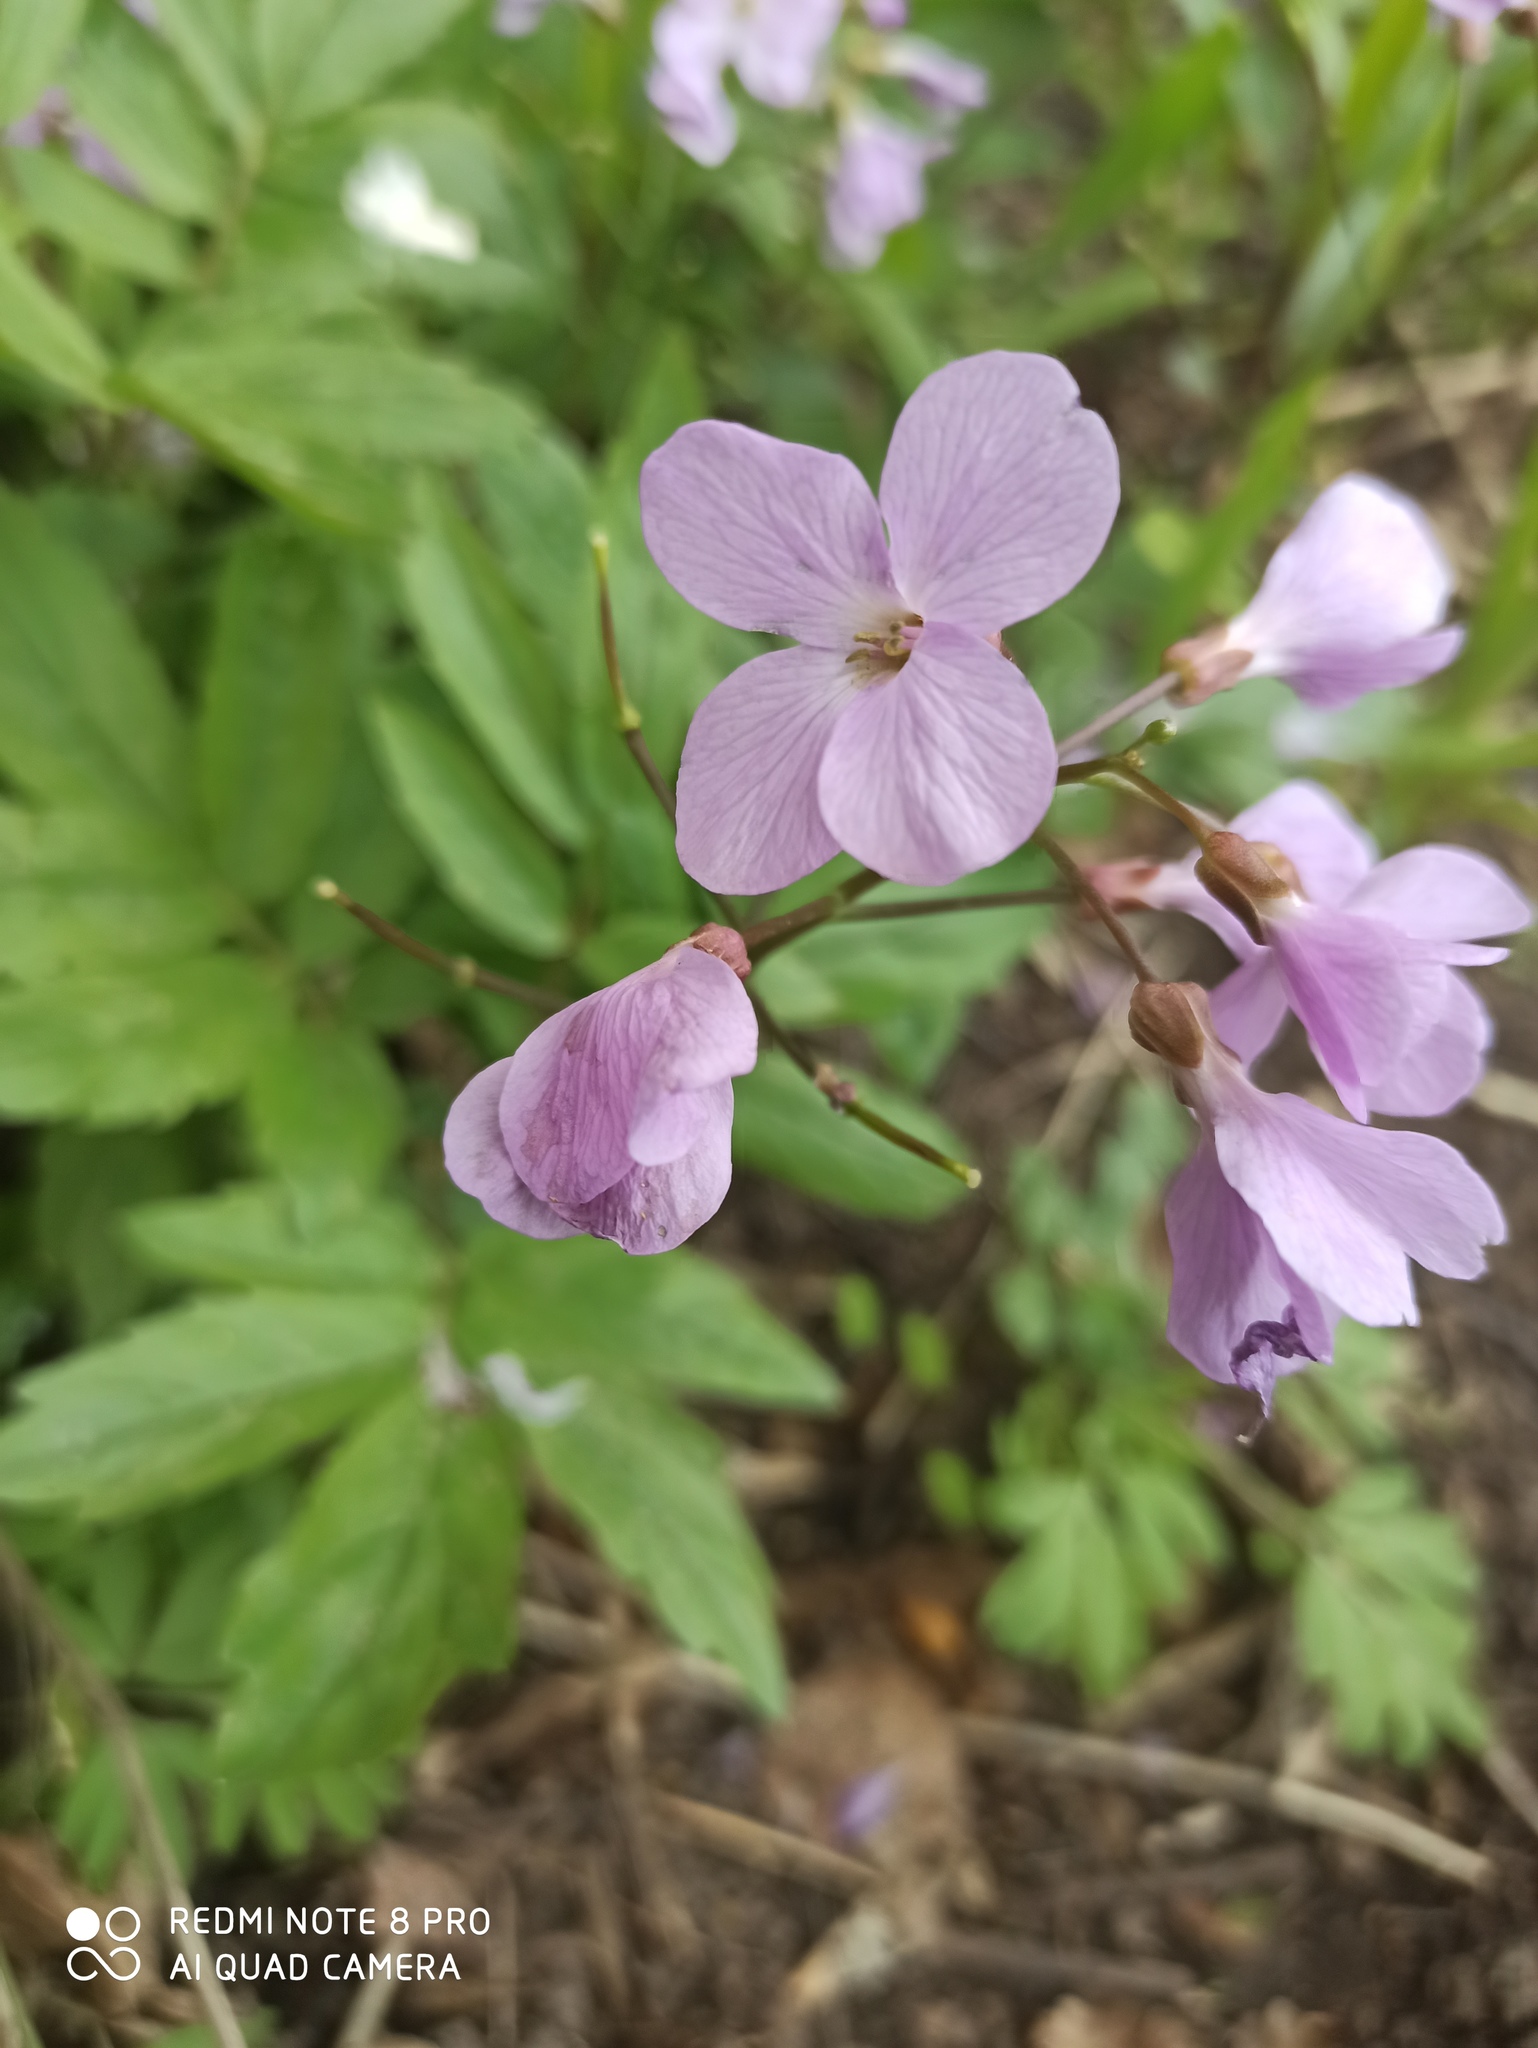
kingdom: Plantae
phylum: Tracheophyta
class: Magnoliopsida
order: Brassicales
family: Brassicaceae
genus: Cardamine
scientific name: Cardamine quinquefolia
